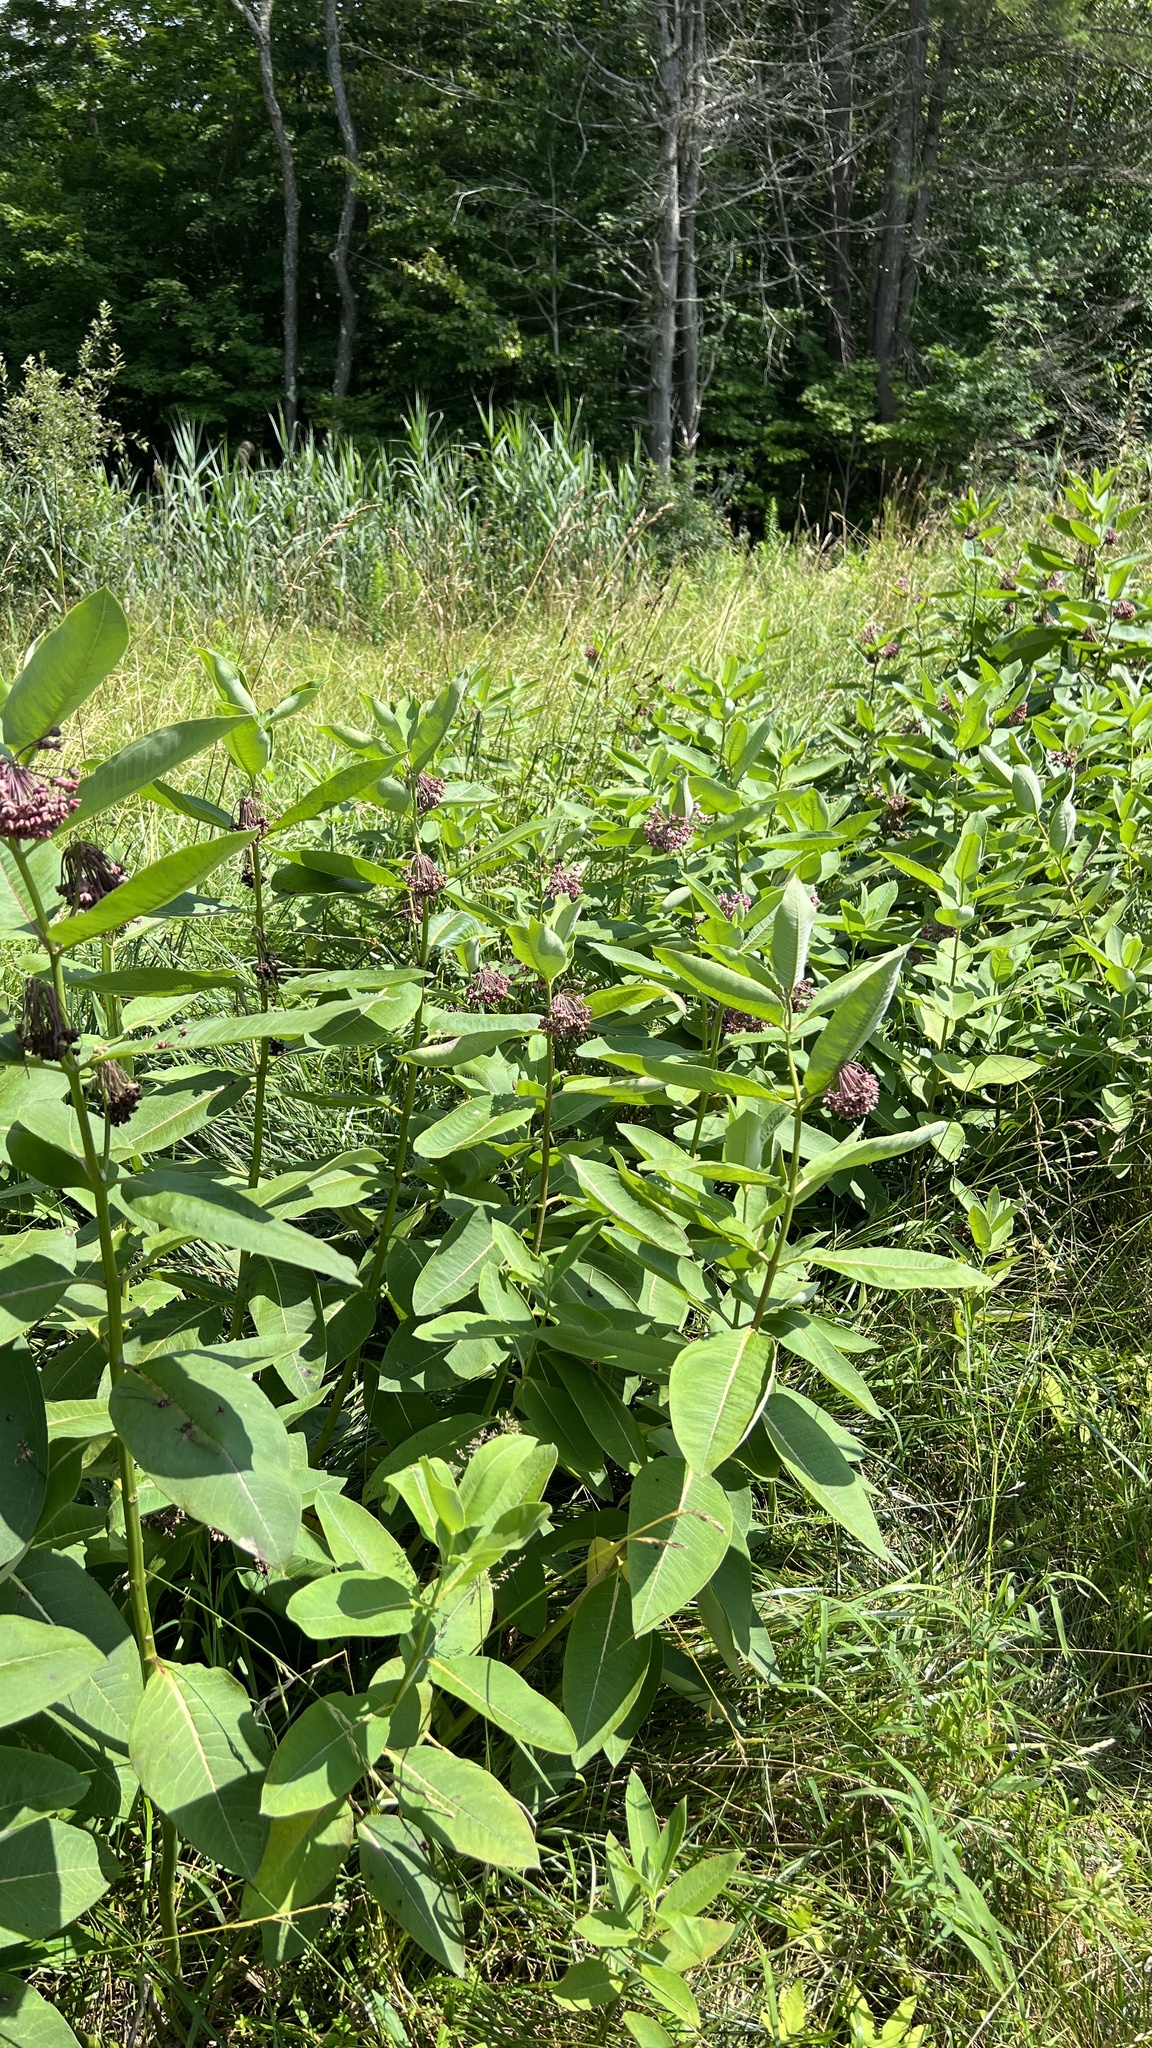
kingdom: Plantae
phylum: Tracheophyta
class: Magnoliopsida
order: Gentianales
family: Apocynaceae
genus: Asclepias
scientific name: Asclepias syriaca
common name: Common milkweed
